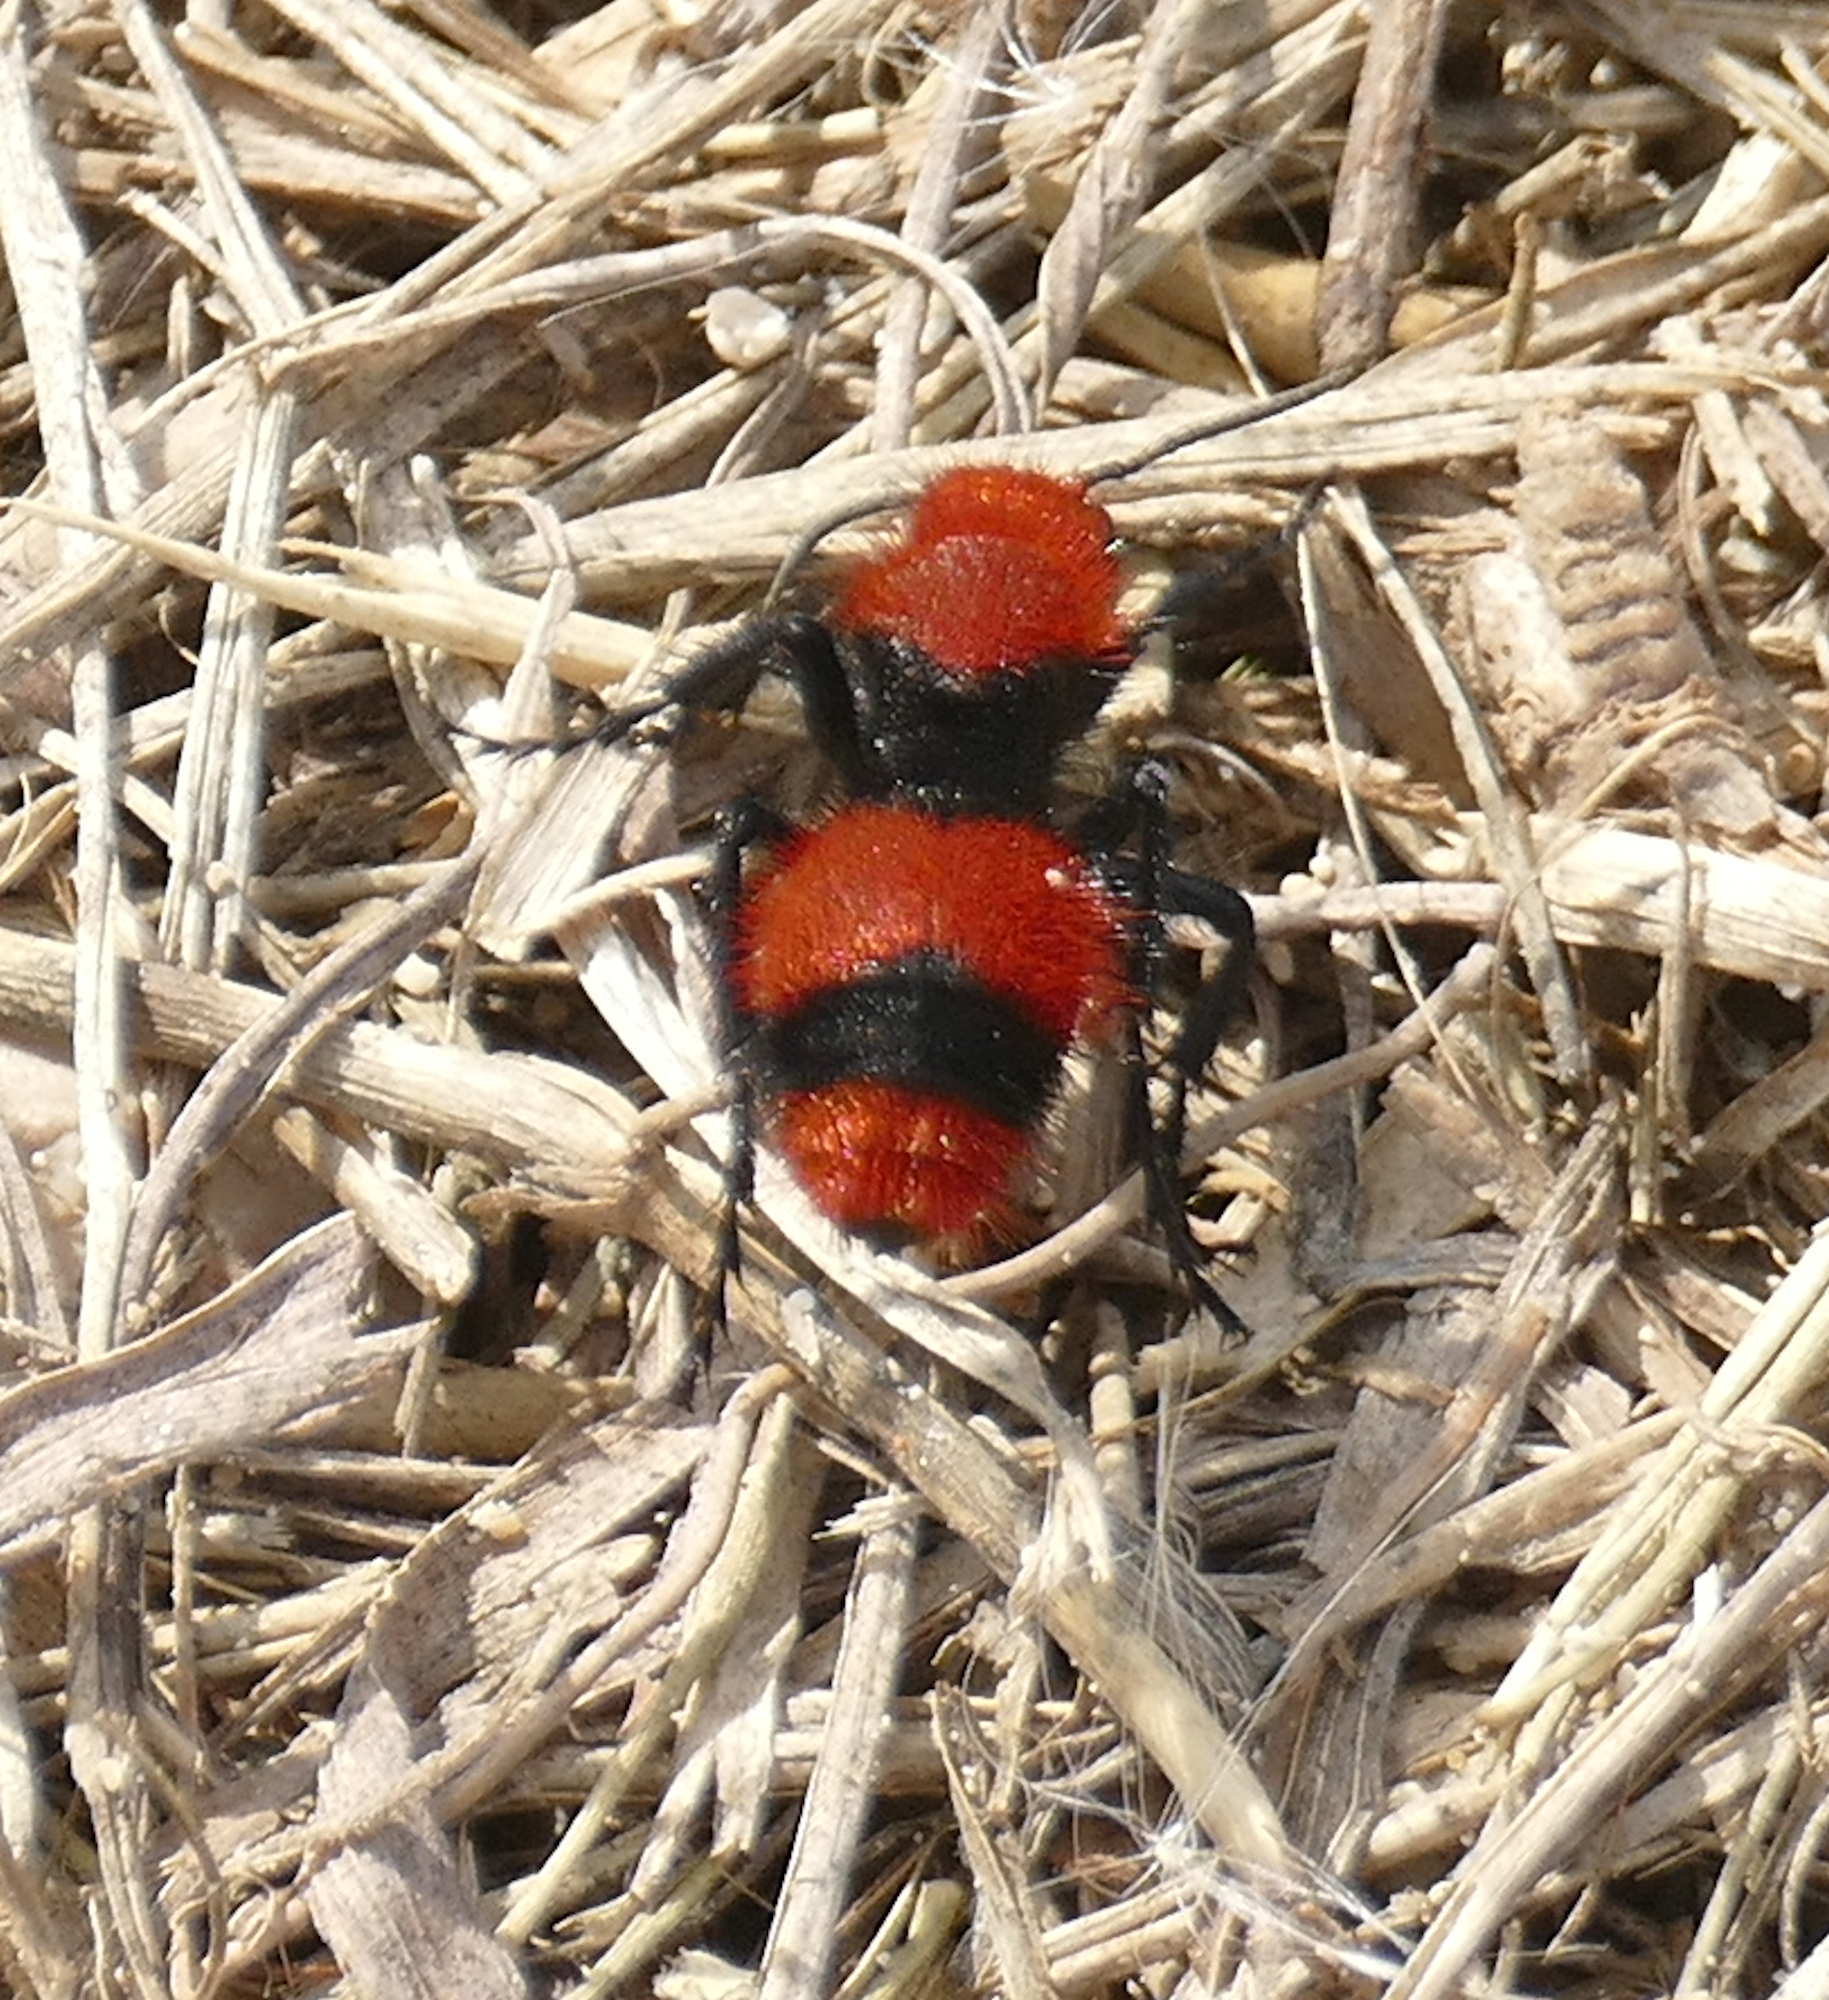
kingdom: Animalia
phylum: Arthropoda
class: Insecta
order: Hymenoptera
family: Mutillidae
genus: Dasymutilla
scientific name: Dasymutilla occidentalis
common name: Common eastern velvet ant
